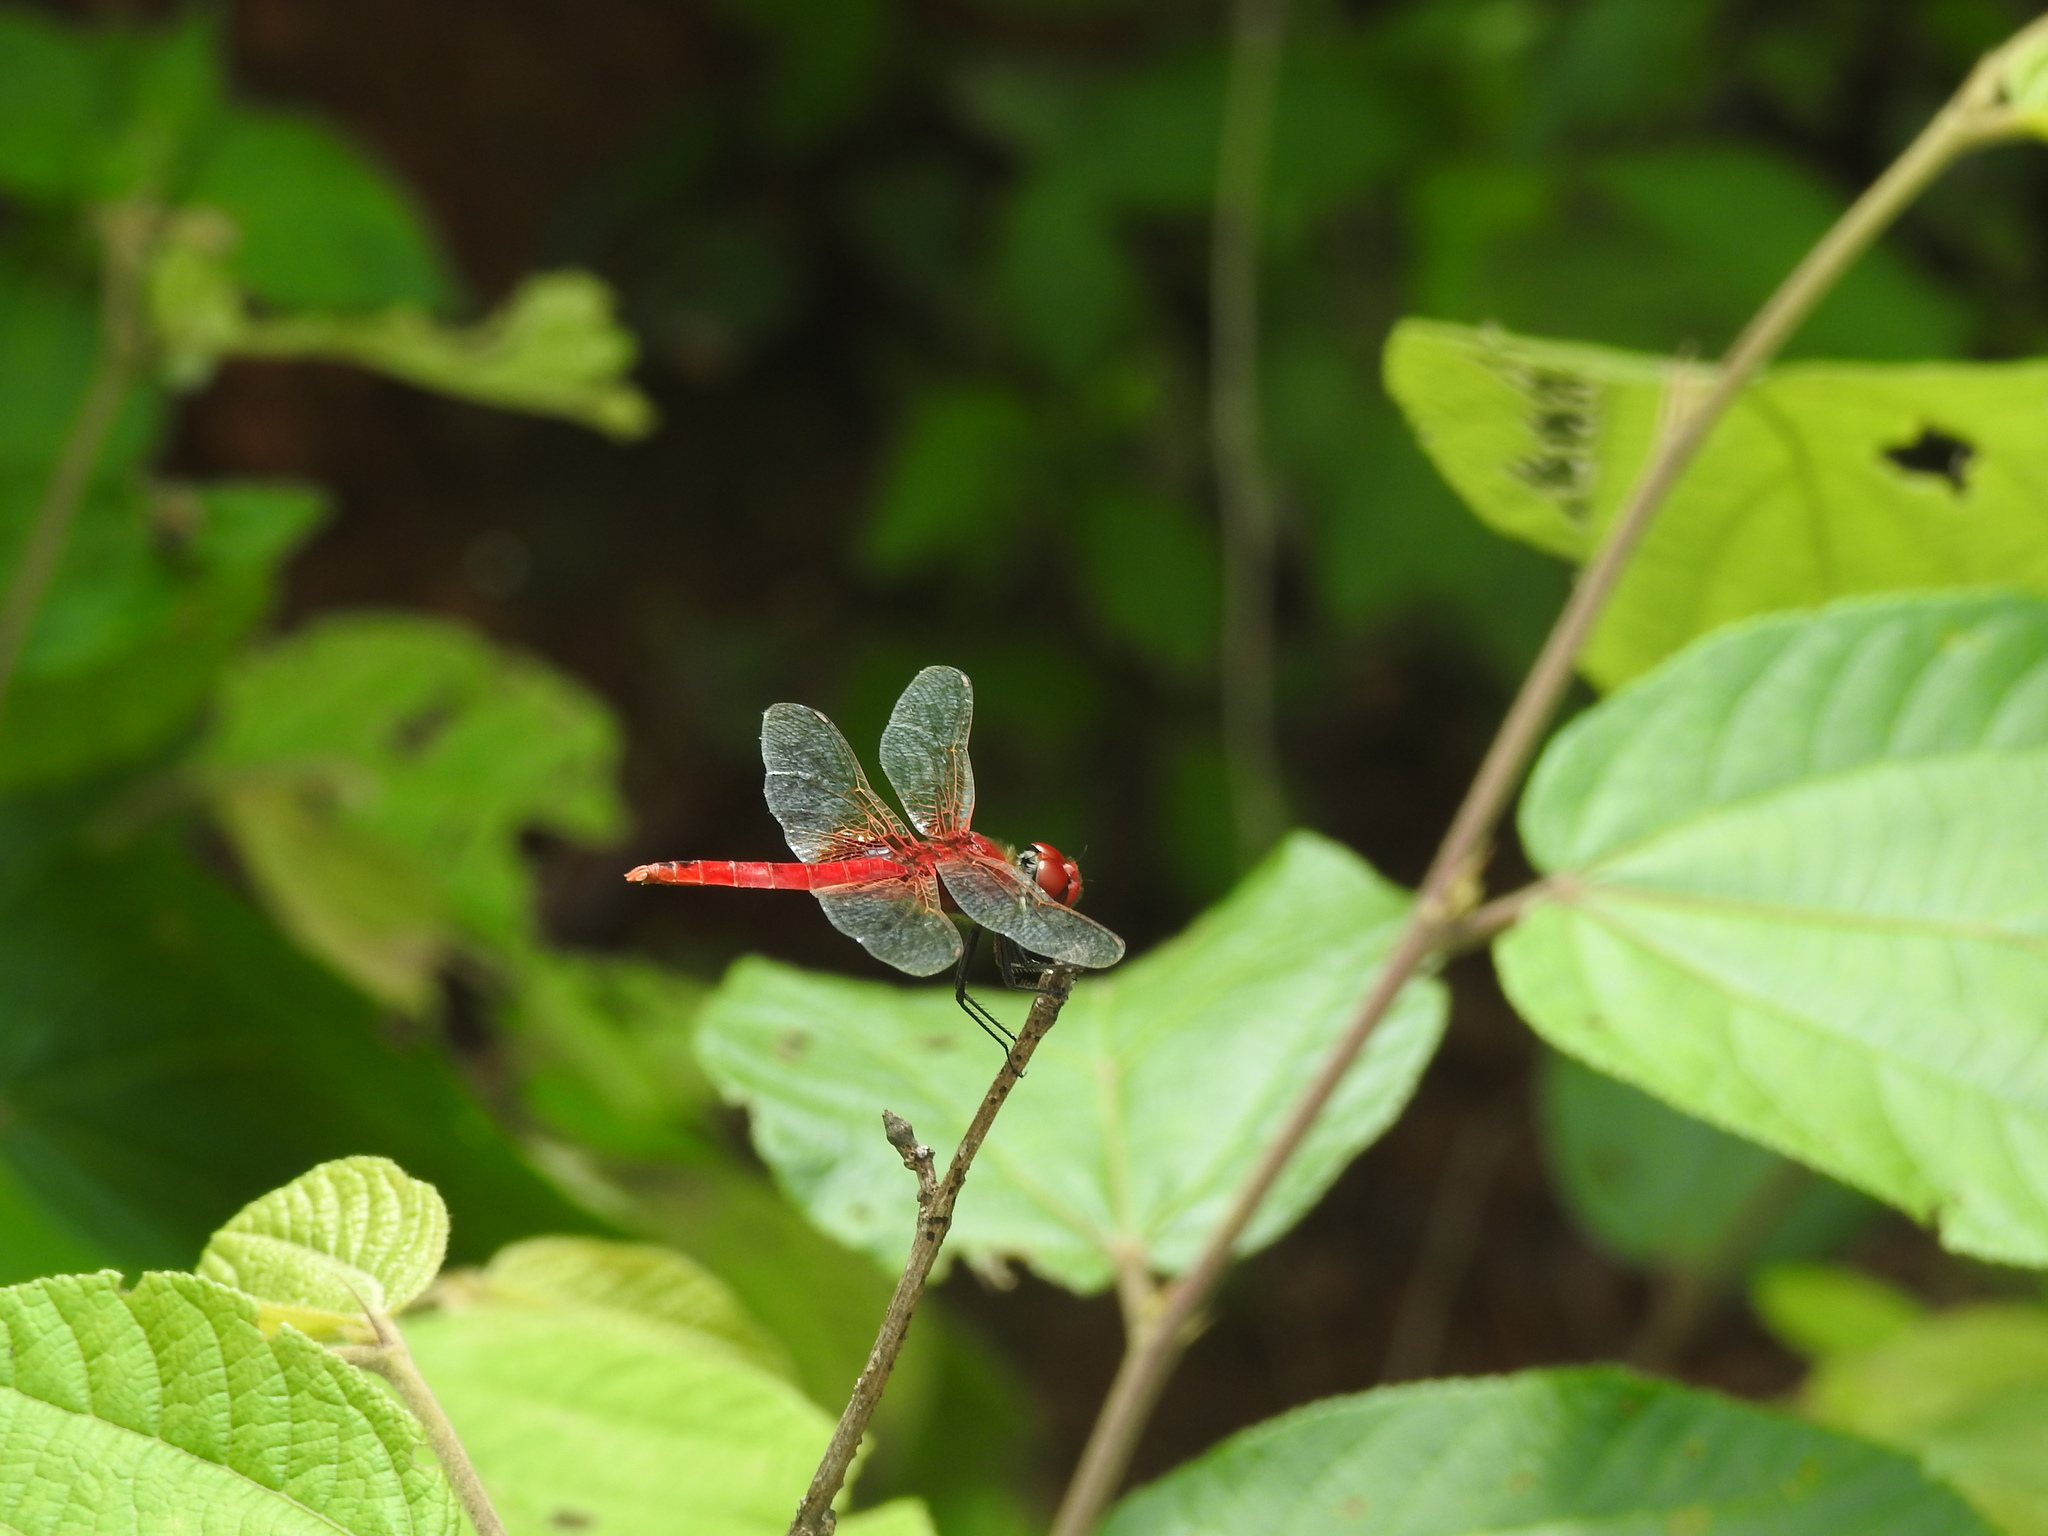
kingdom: Animalia
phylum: Arthropoda
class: Insecta
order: Odonata
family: Libellulidae
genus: Urothemis
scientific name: Urothemis signata
